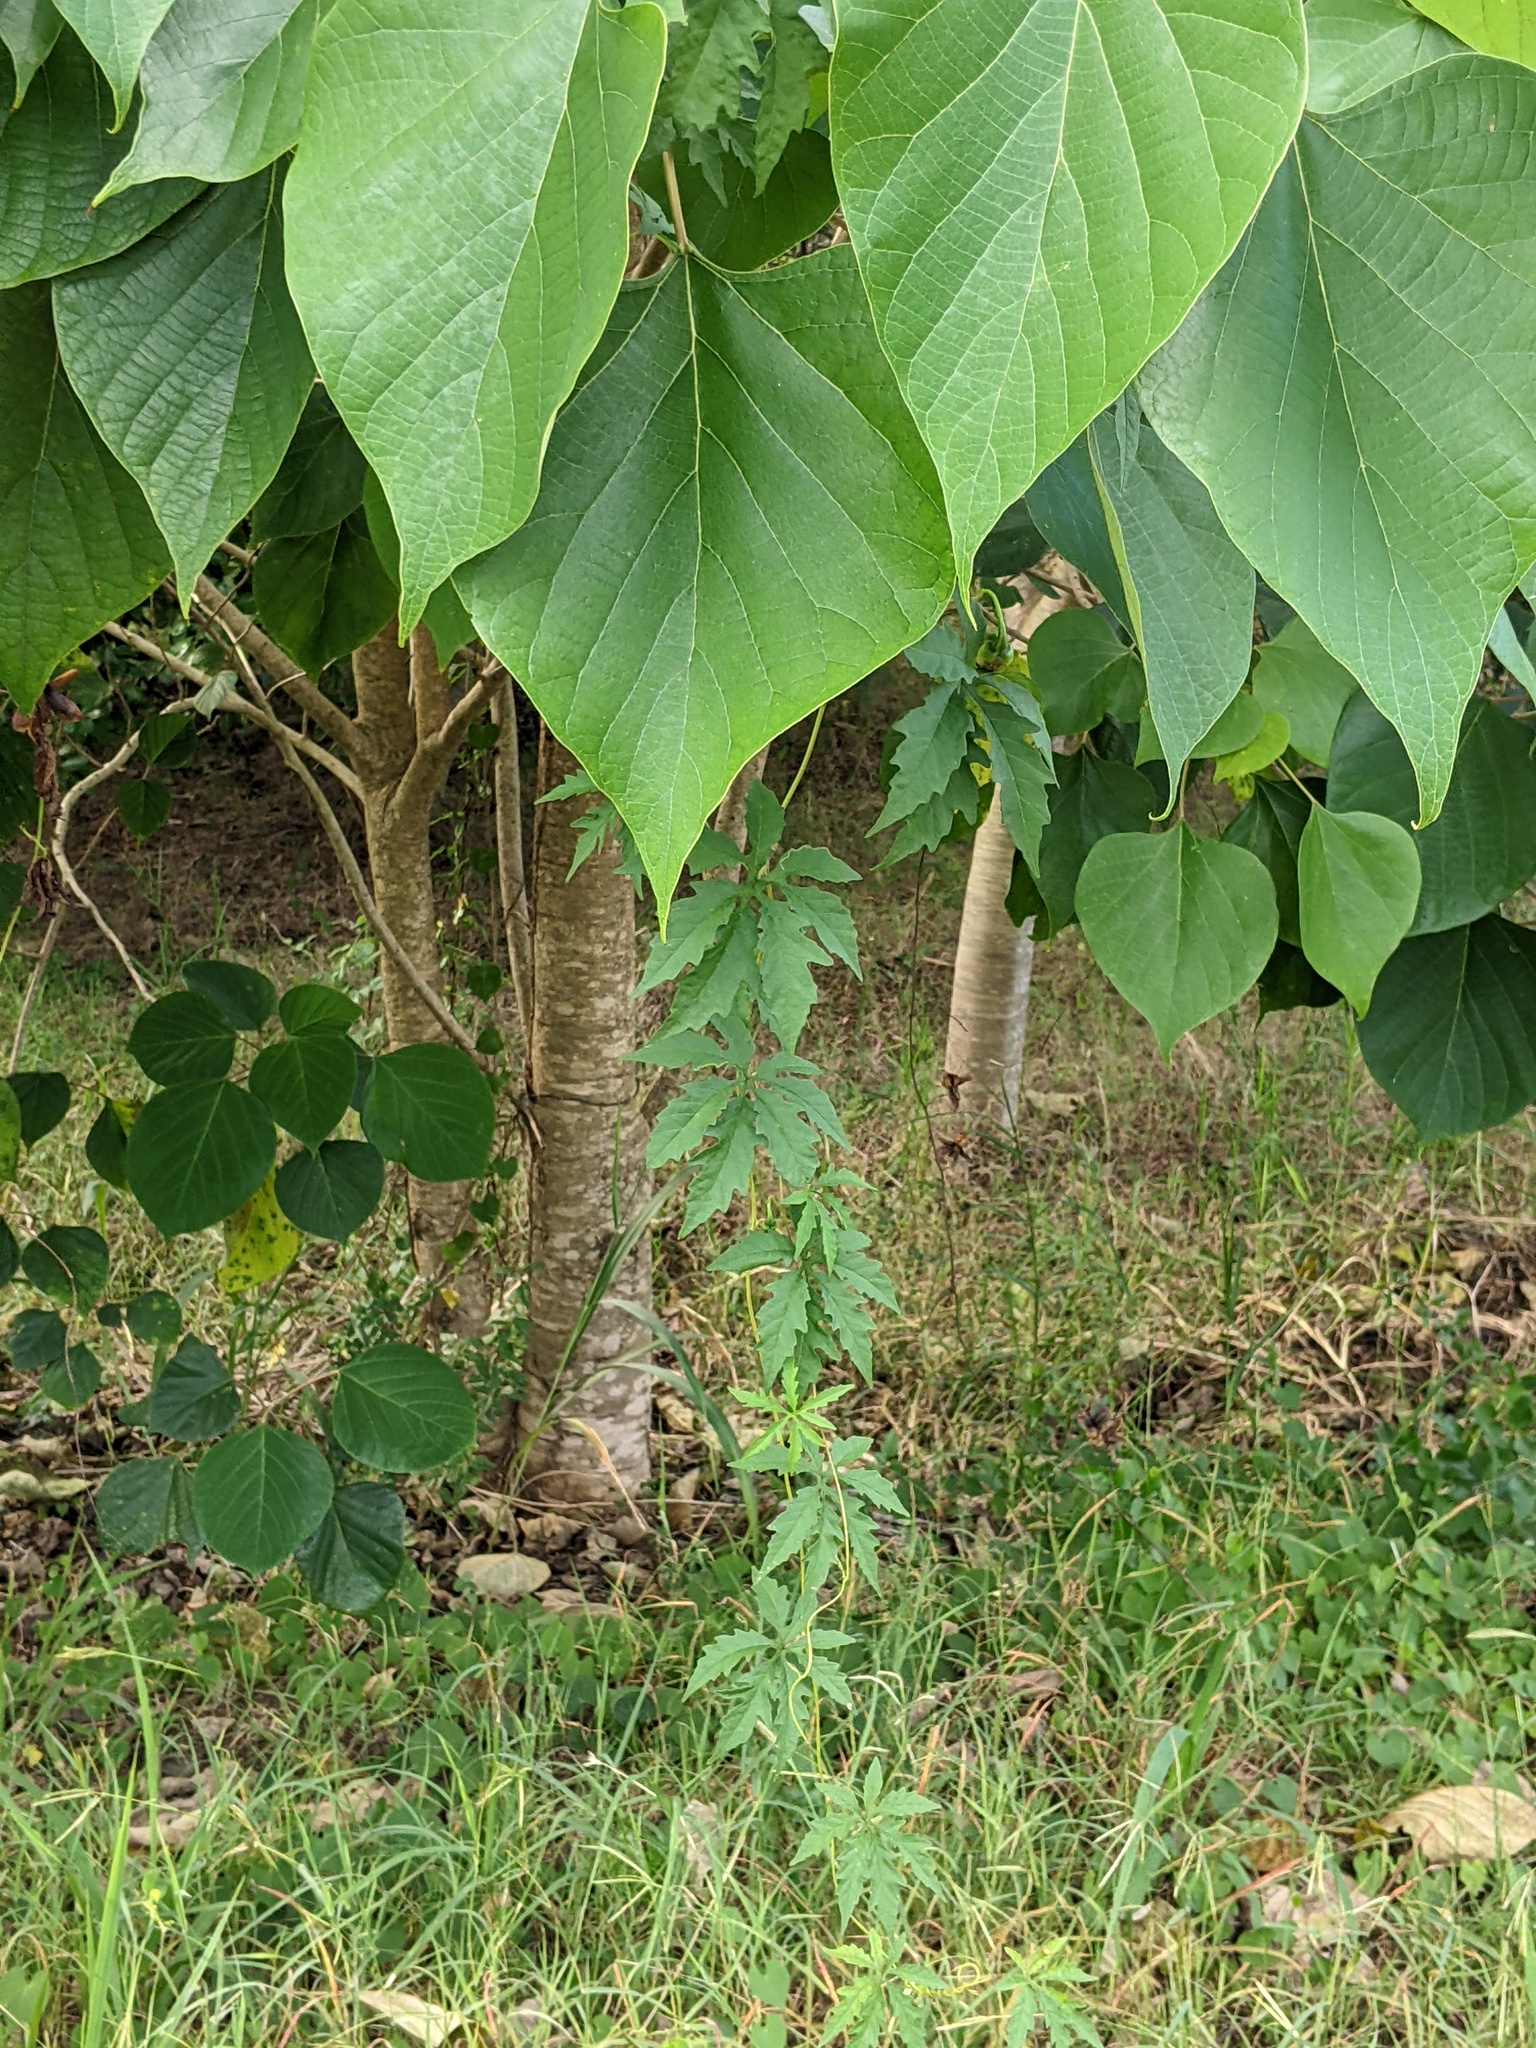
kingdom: Plantae
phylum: Tracheophyta
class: Magnoliopsida
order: Solanales
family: Convolvulaceae
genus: Distimake
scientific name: Distimake dissectus
